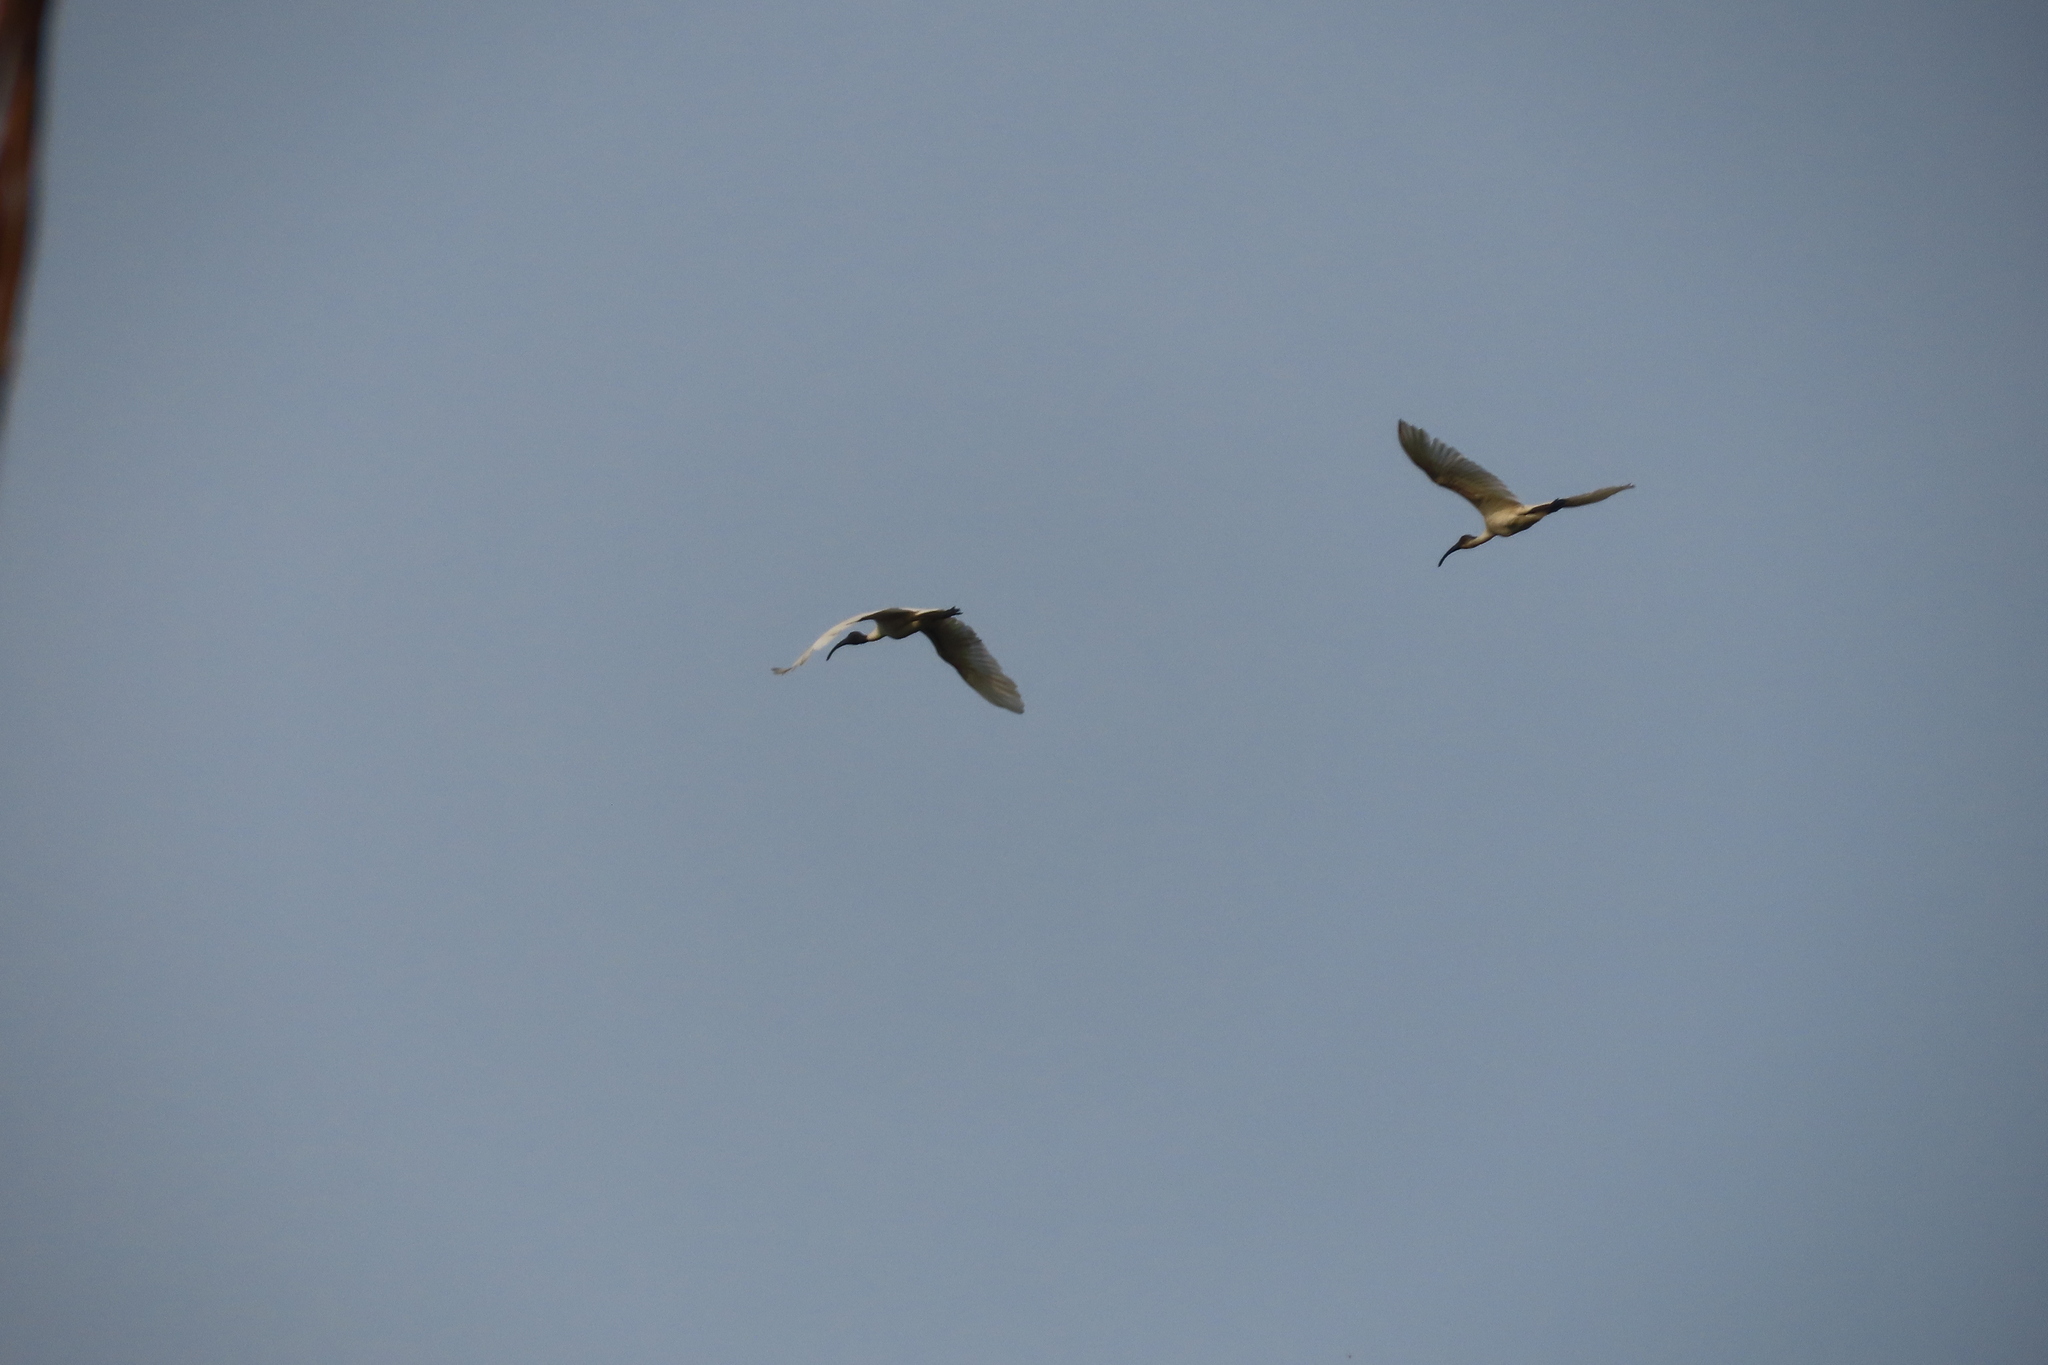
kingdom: Animalia
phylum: Chordata
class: Aves
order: Pelecaniformes
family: Threskiornithidae
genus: Threskiornis
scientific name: Threskiornis melanocephalus
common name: Black-headed ibis
